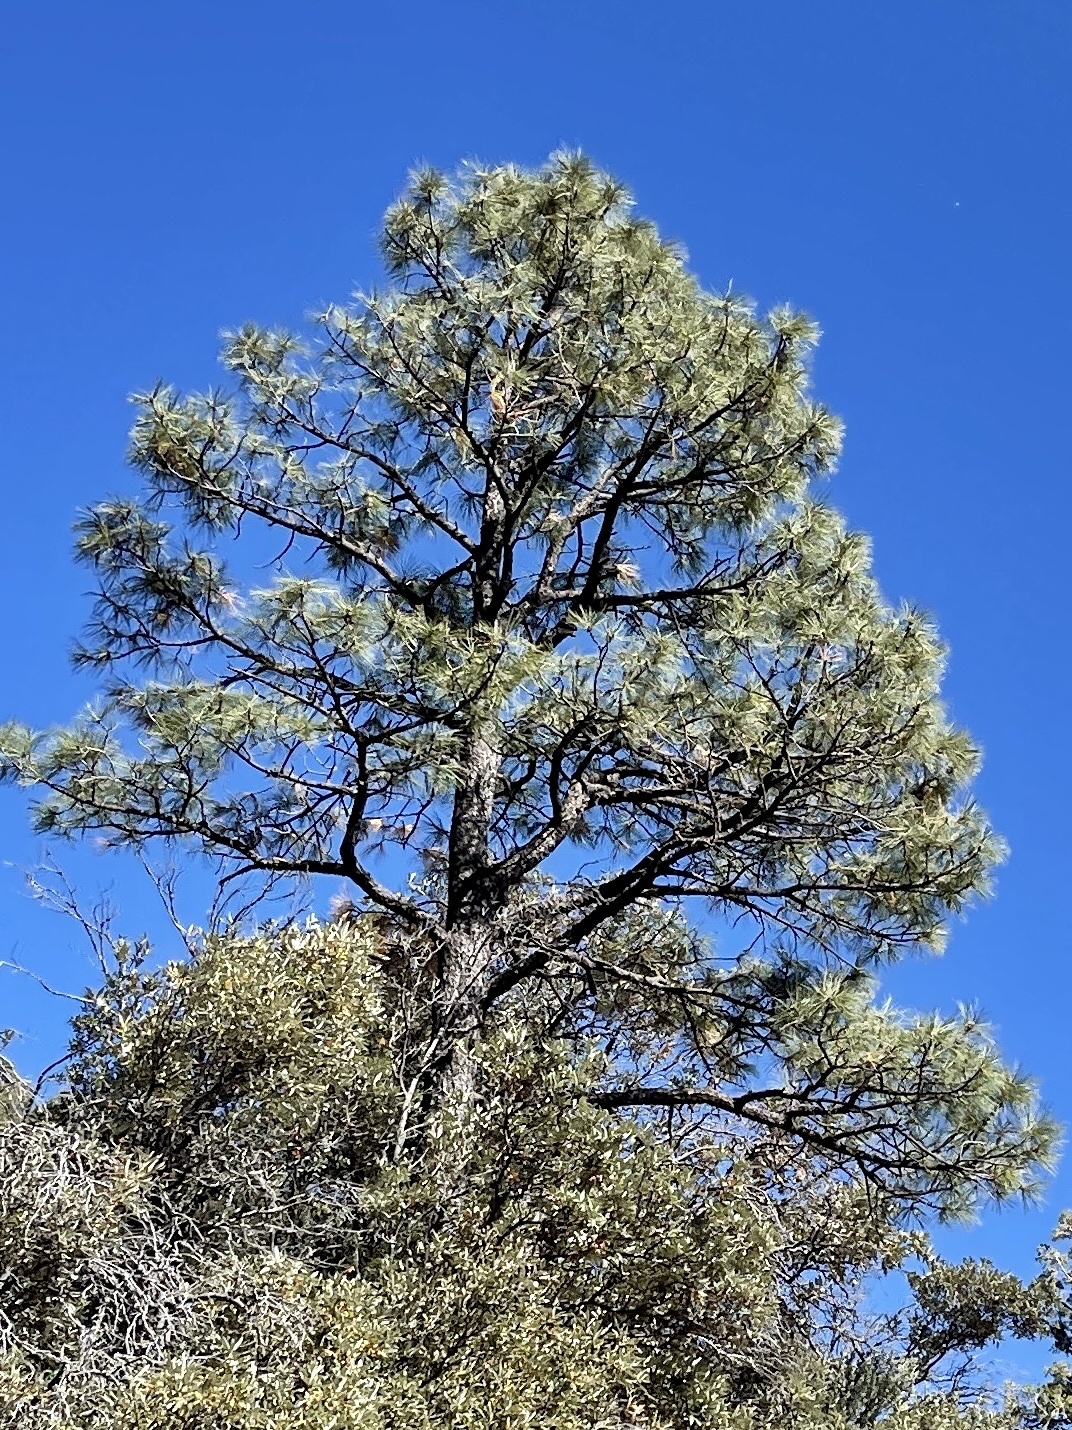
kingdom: Plantae
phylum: Tracheophyta
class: Pinopsida
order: Pinales
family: Pinaceae
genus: Pinus
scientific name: Pinus ponderosa
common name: Western yellow-pine
